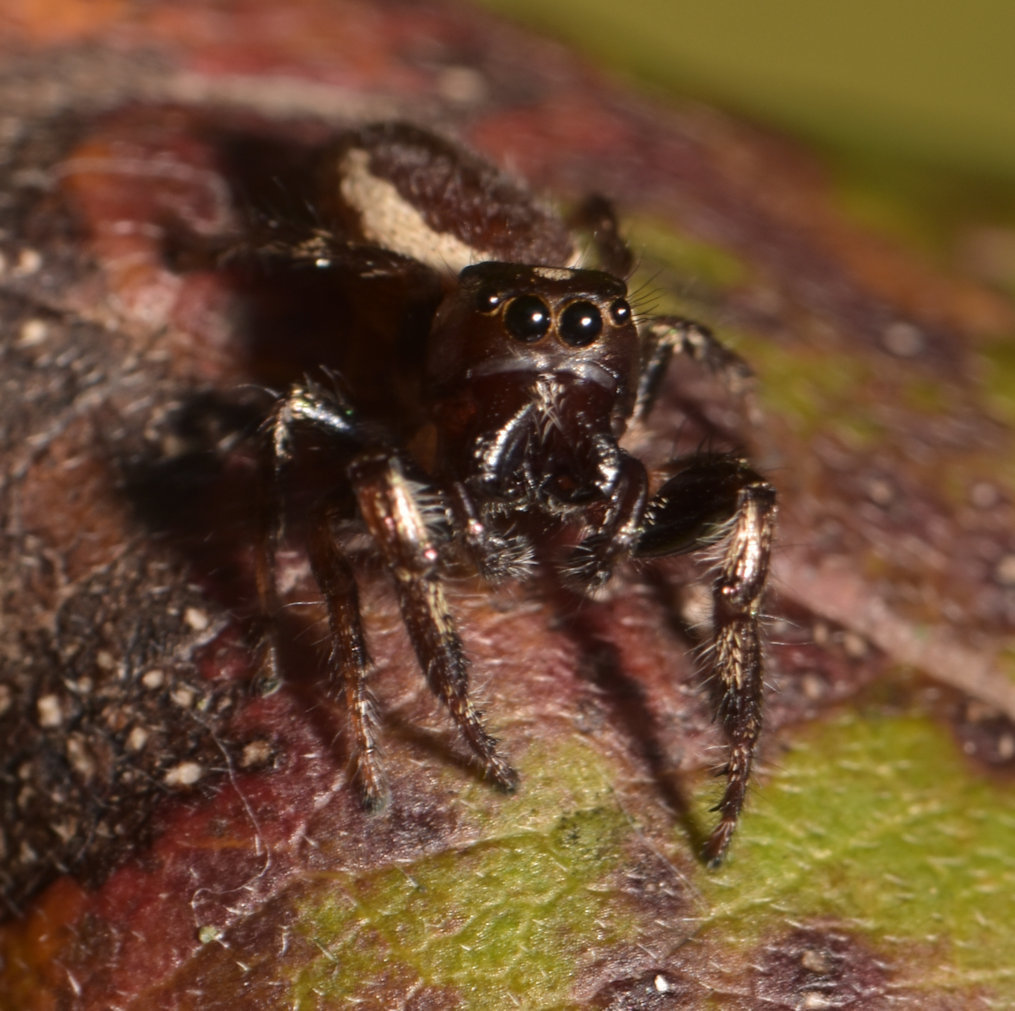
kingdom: Animalia
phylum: Arthropoda
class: Arachnida
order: Araneae
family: Salticidae
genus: Eris
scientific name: Eris militaris
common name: Bronze jumper
